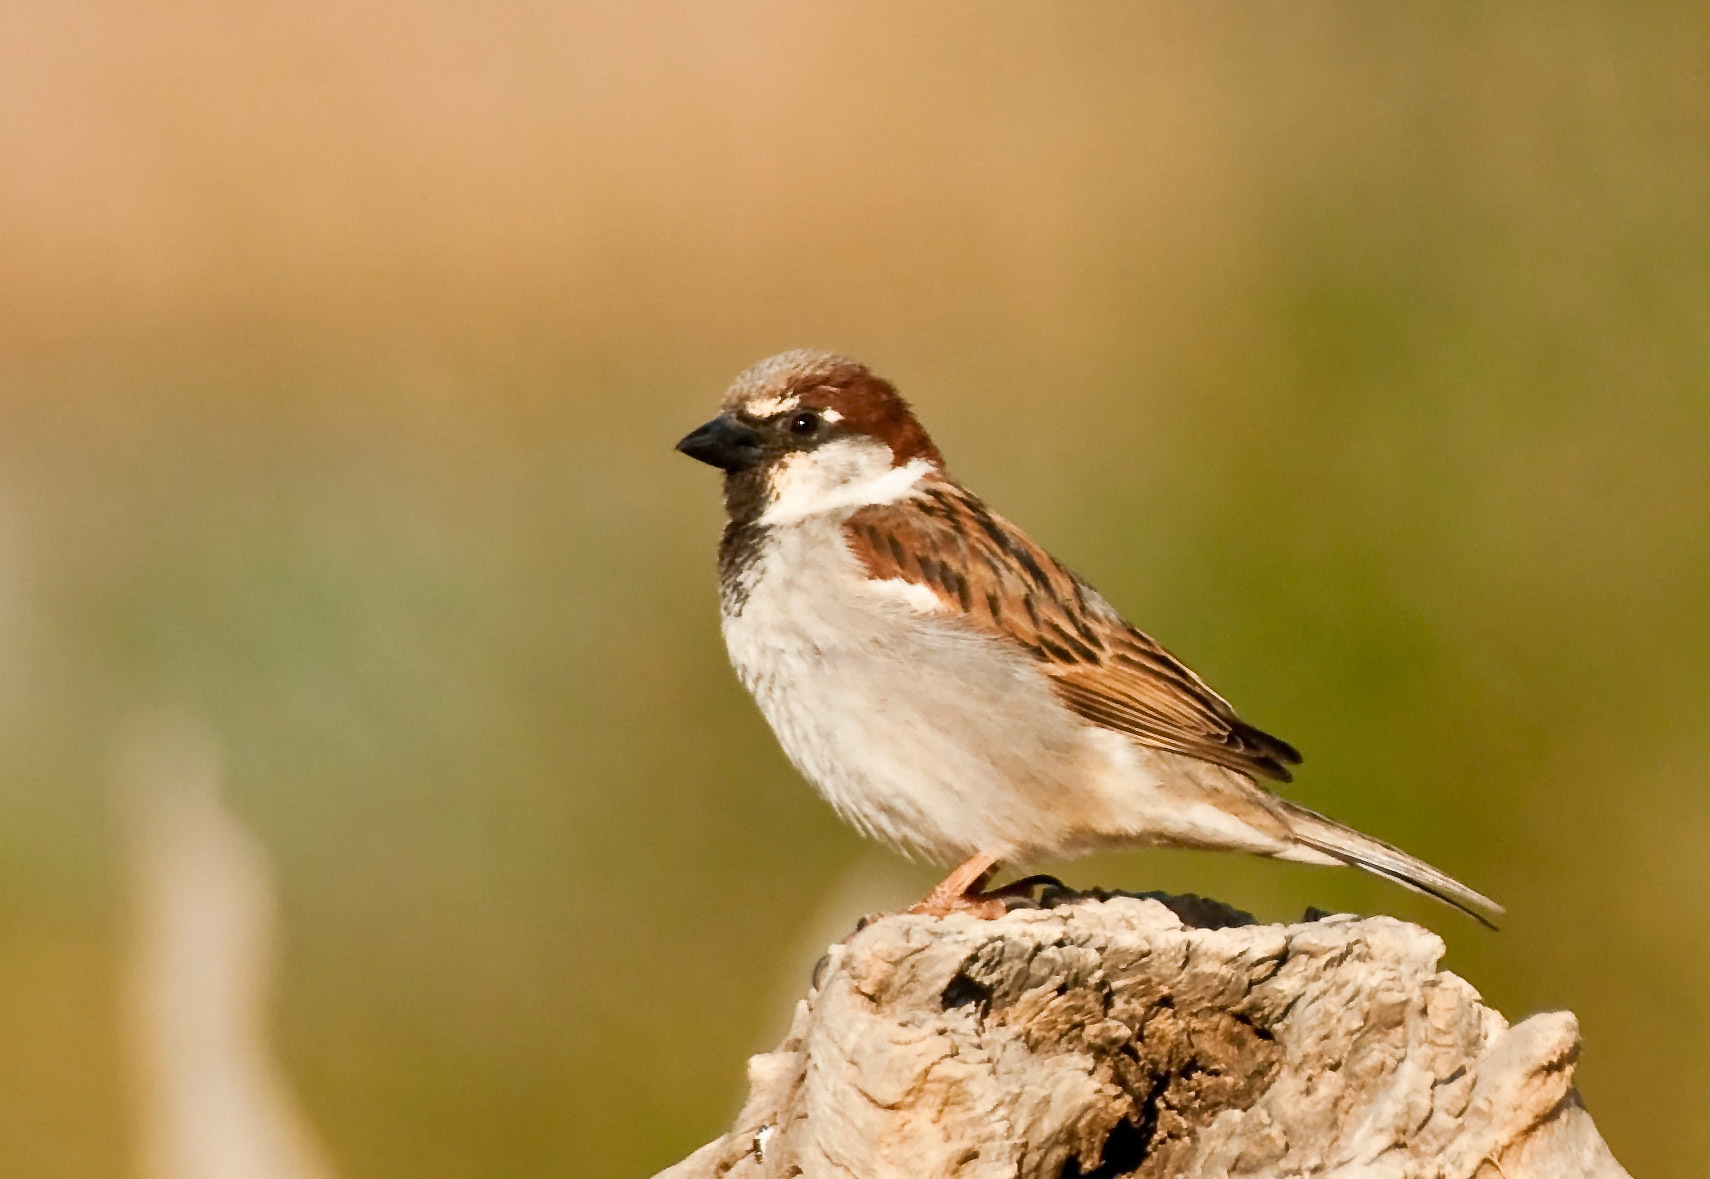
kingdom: Animalia
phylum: Chordata
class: Aves
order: Passeriformes
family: Passeridae
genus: Passer
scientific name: Passer domesticus
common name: House sparrow
